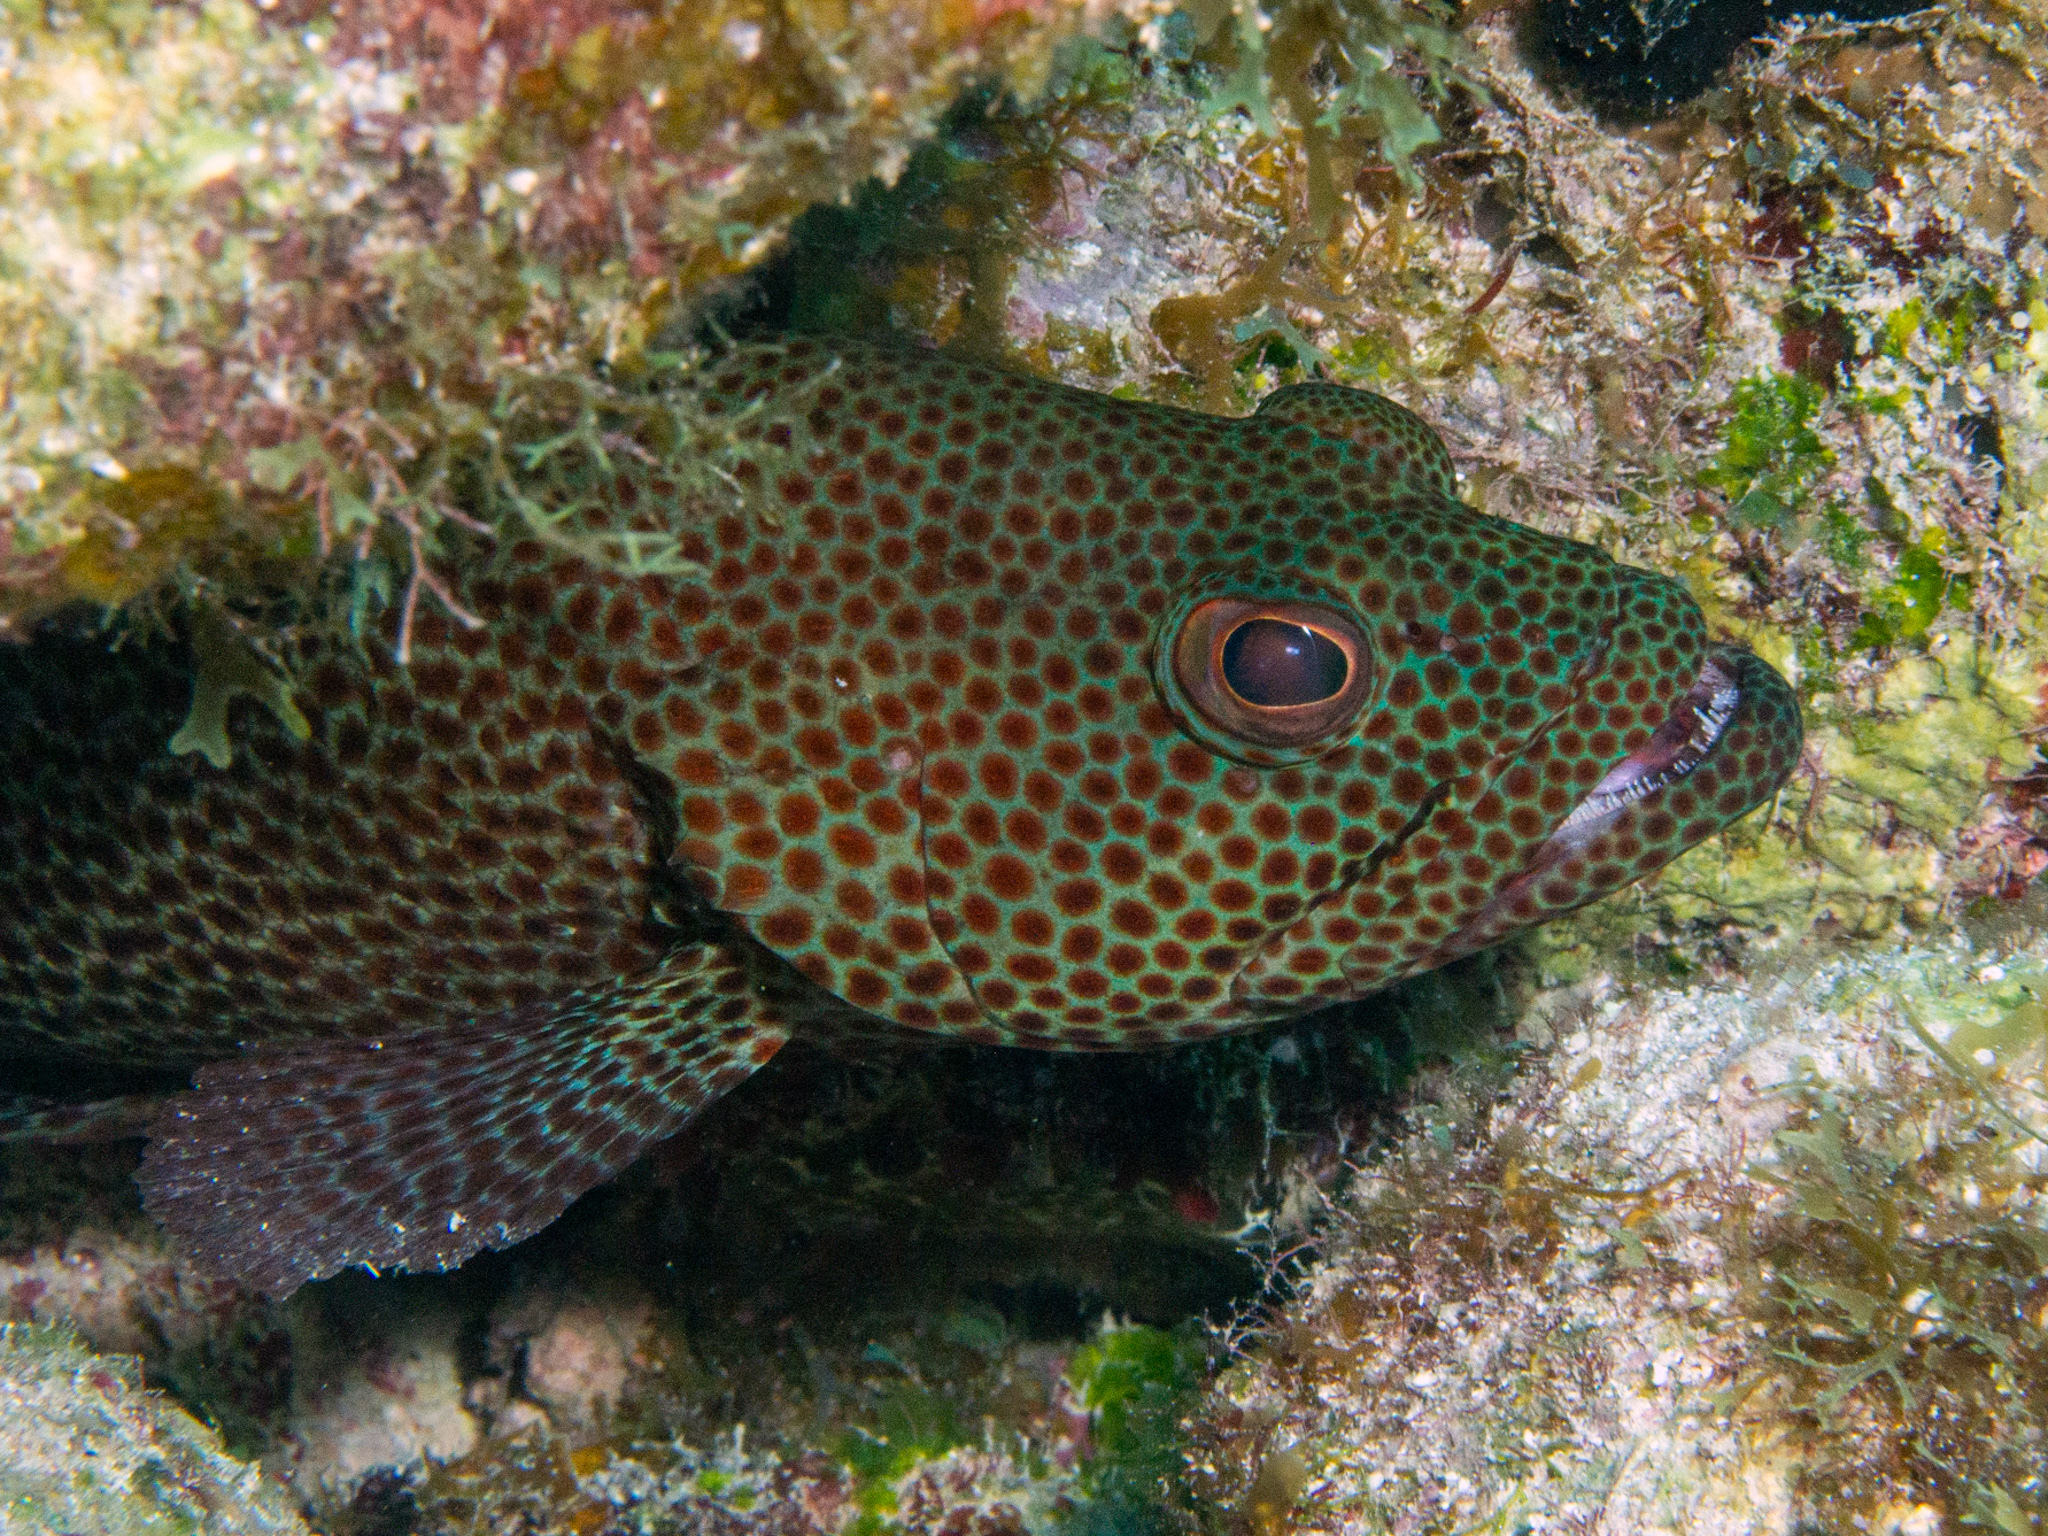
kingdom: Animalia
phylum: Chordata
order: Perciformes
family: Serranidae
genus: Cephalopholis
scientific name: Cephalopholis cruentata
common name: Graysby
